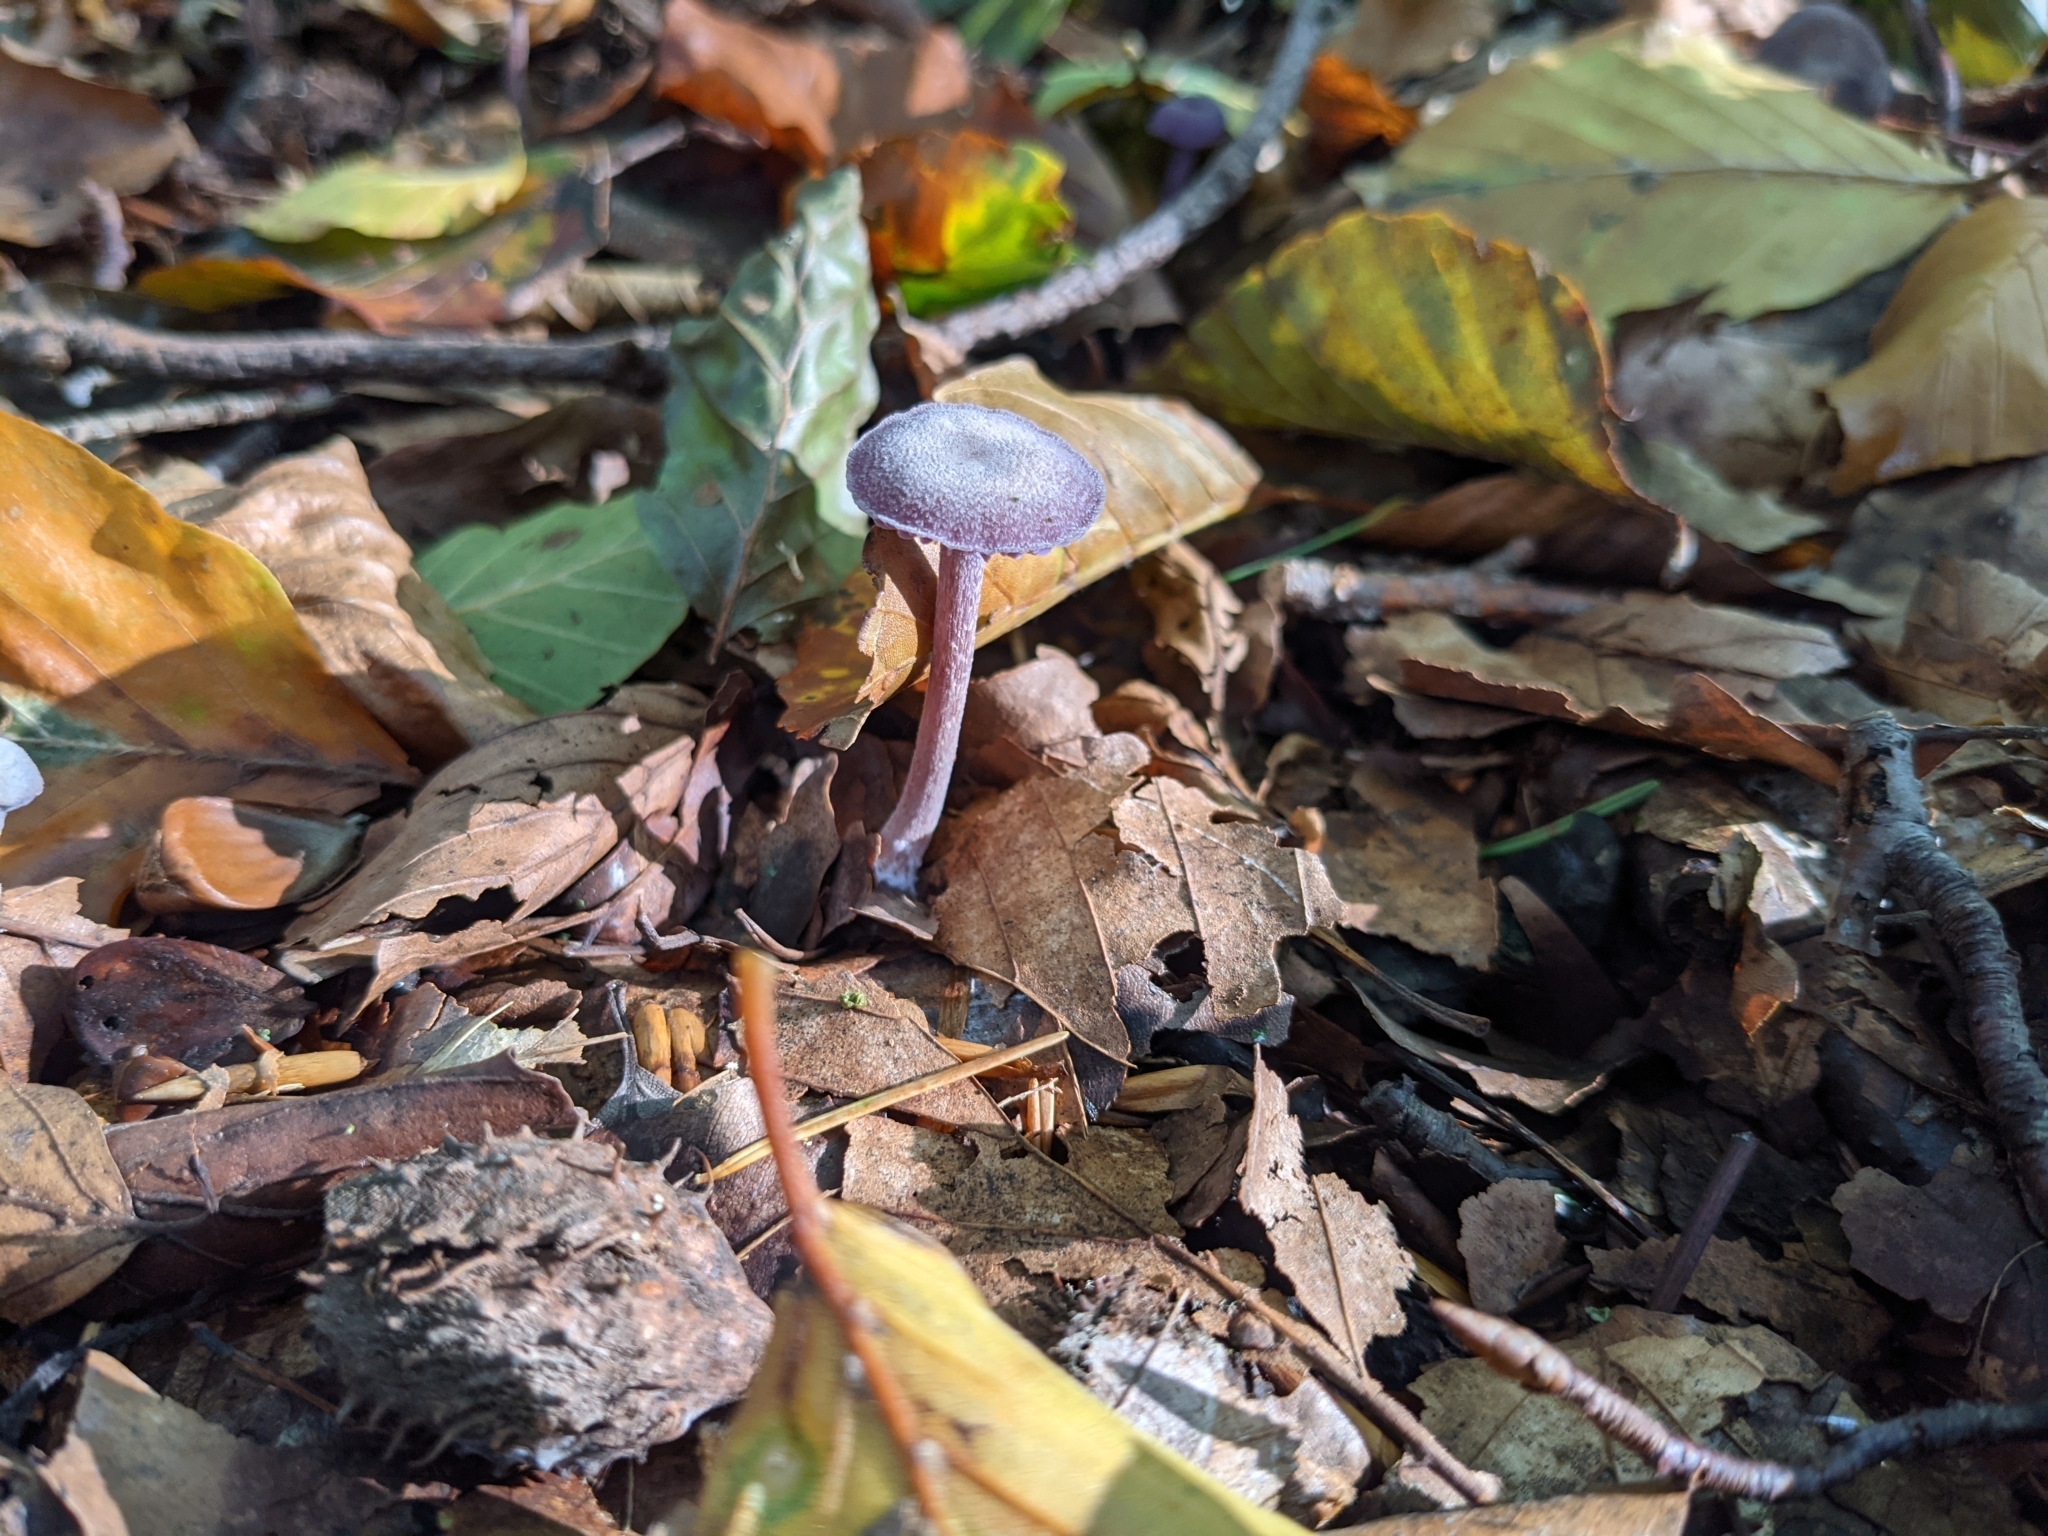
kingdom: Fungi
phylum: Basidiomycota
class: Agaricomycetes
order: Agaricales
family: Hydnangiaceae
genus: Laccaria
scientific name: Laccaria amethystina
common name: Amethyst deceiver
